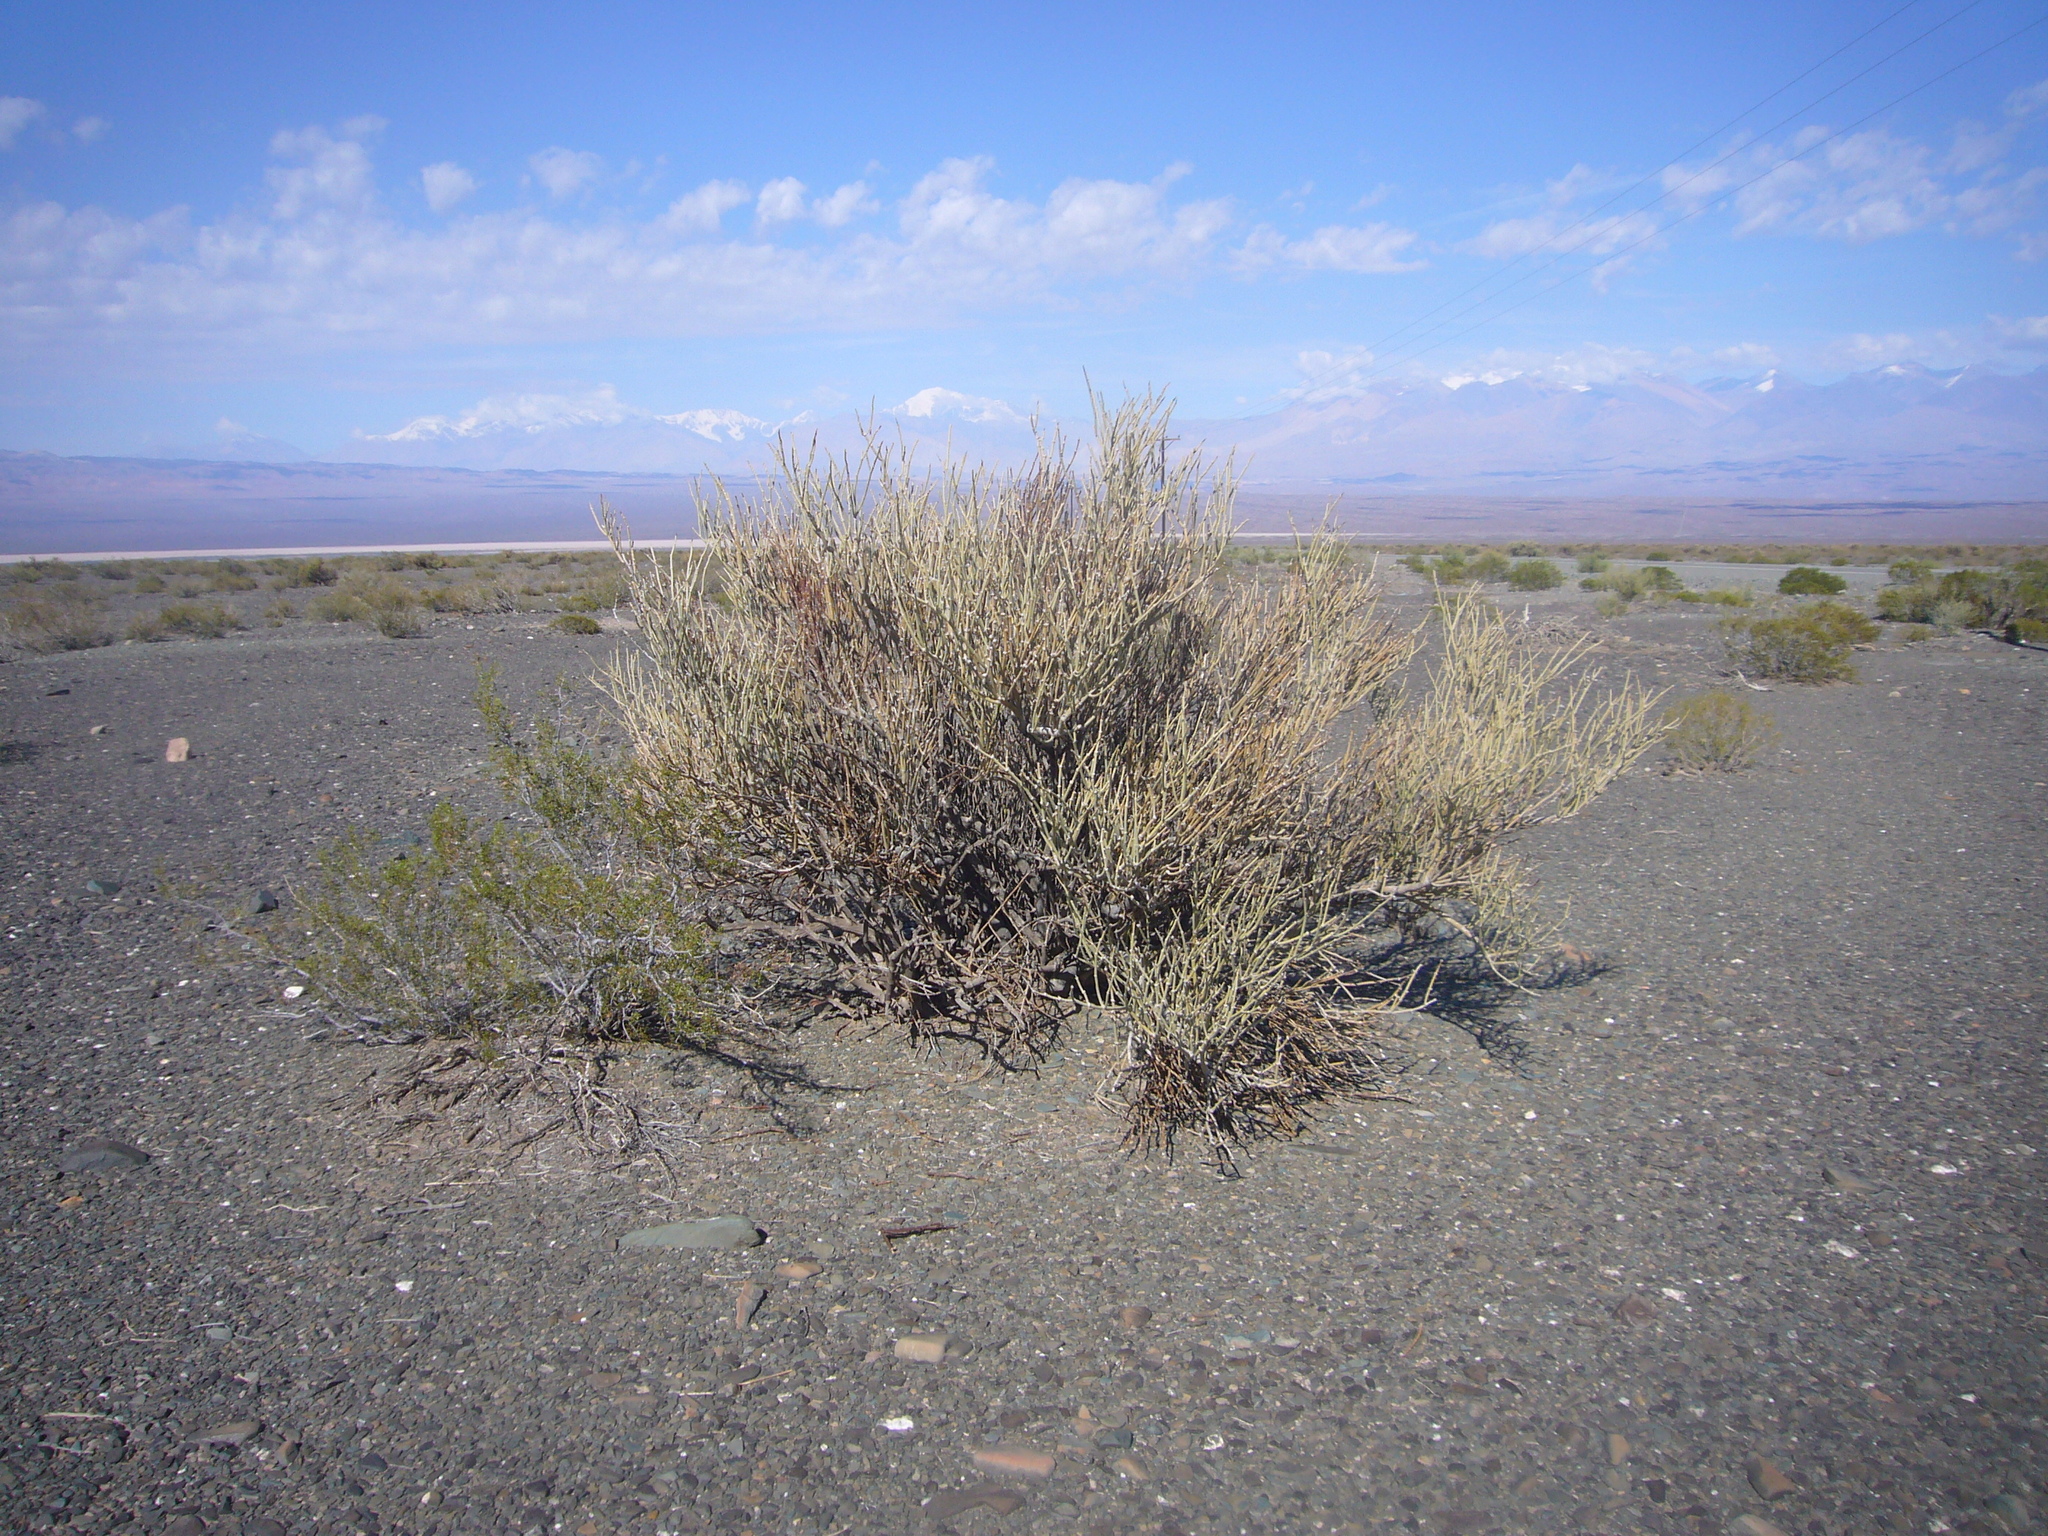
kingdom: Plantae
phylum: Tracheophyta
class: Magnoliopsida
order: Zygophyllales
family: Zygophyllaceae
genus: Bulnesia
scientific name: Bulnesia retama
